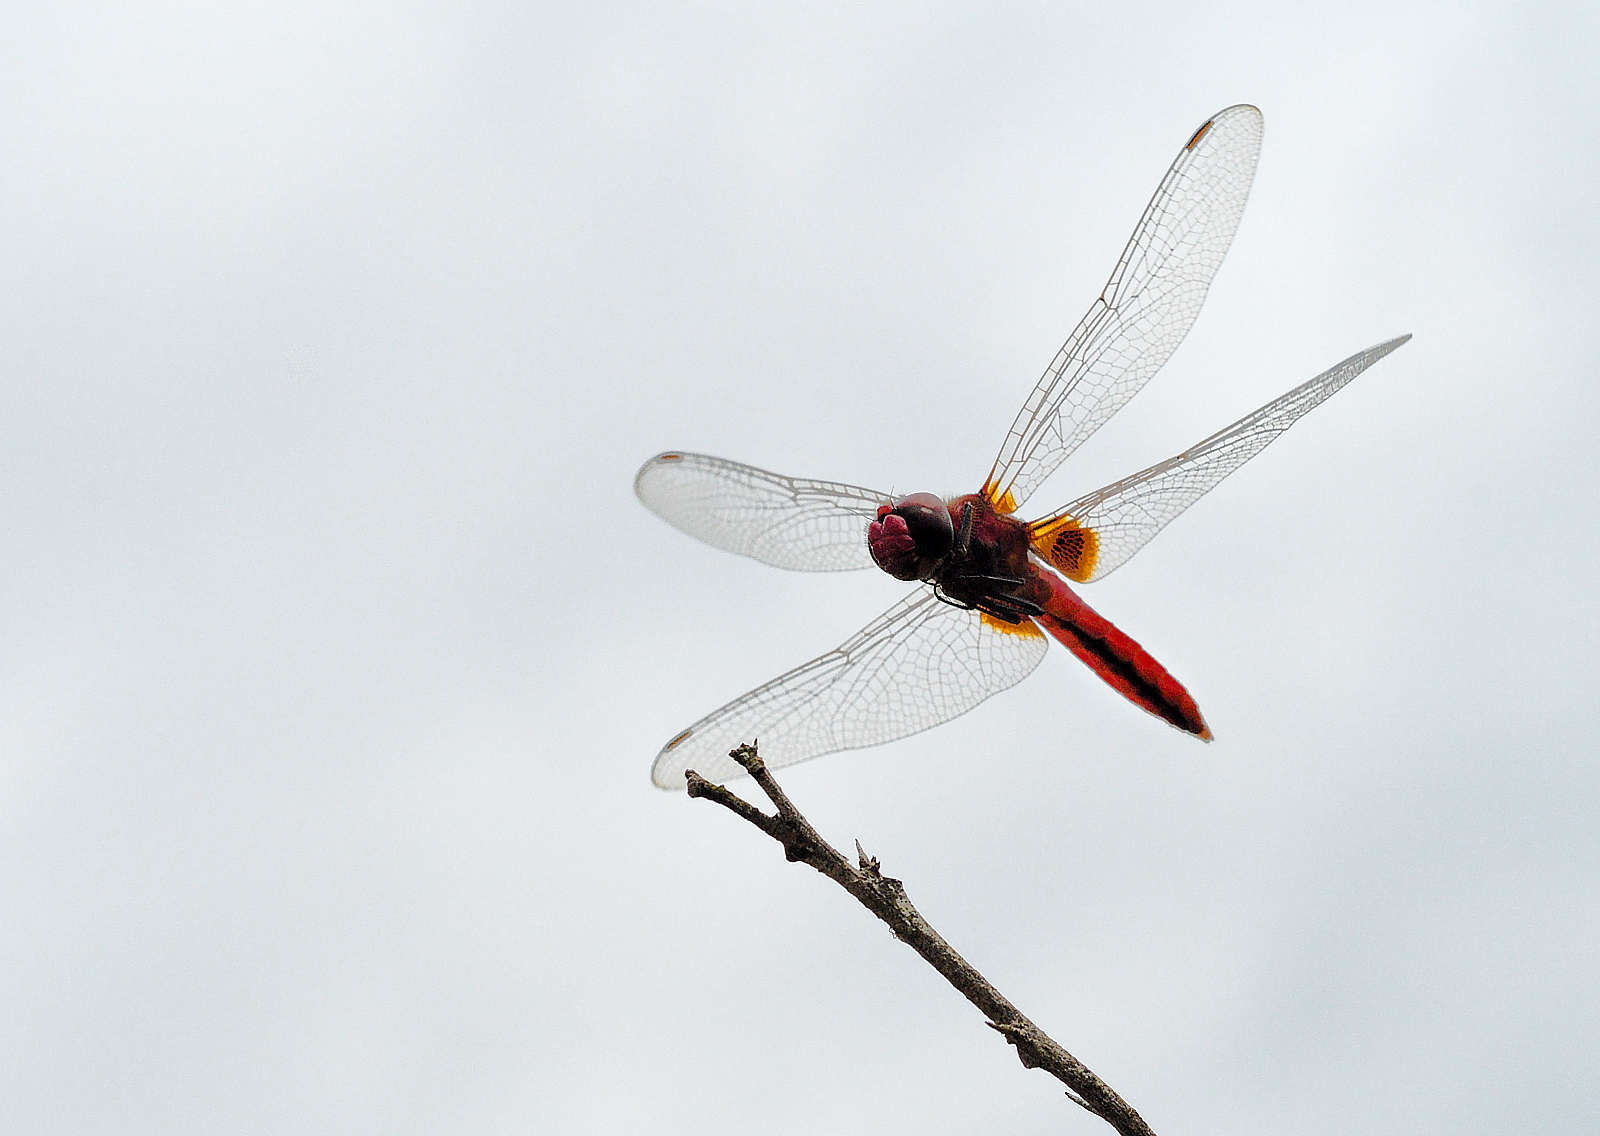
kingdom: Animalia
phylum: Arthropoda
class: Insecta
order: Odonata
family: Libellulidae
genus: Urothemis
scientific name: Urothemis signata
